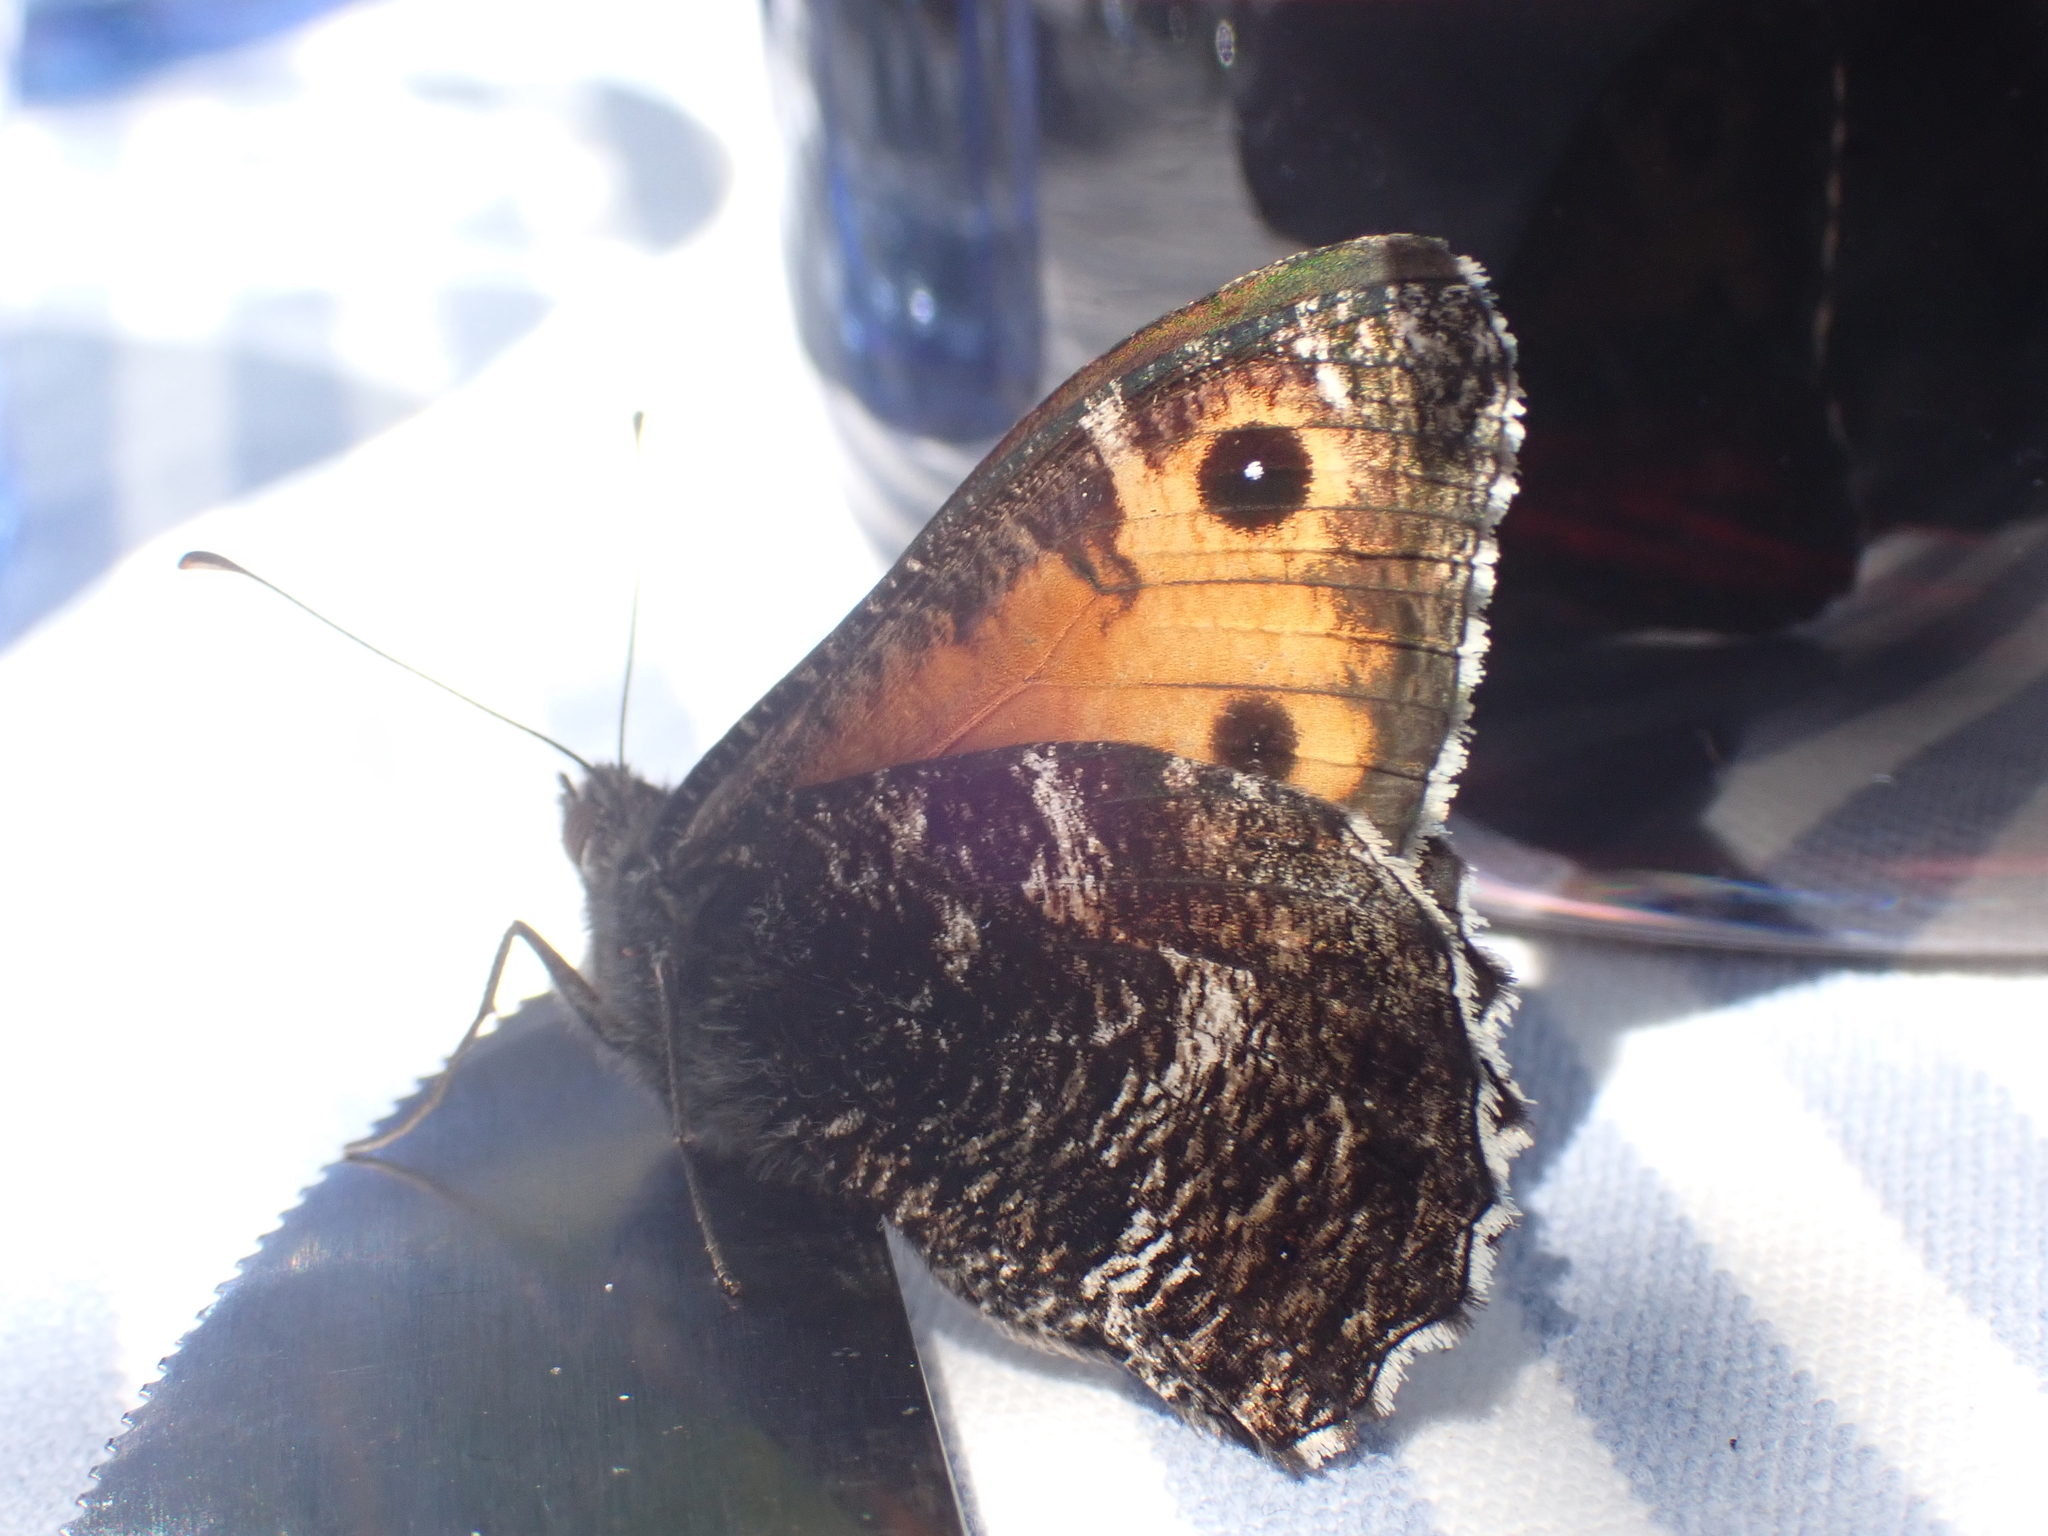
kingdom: Animalia
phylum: Arthropoda
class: Insecta
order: Lepidoptera
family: Nymphalidae
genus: Hipparchia
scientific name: Hipparchia semele
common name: Grayling
